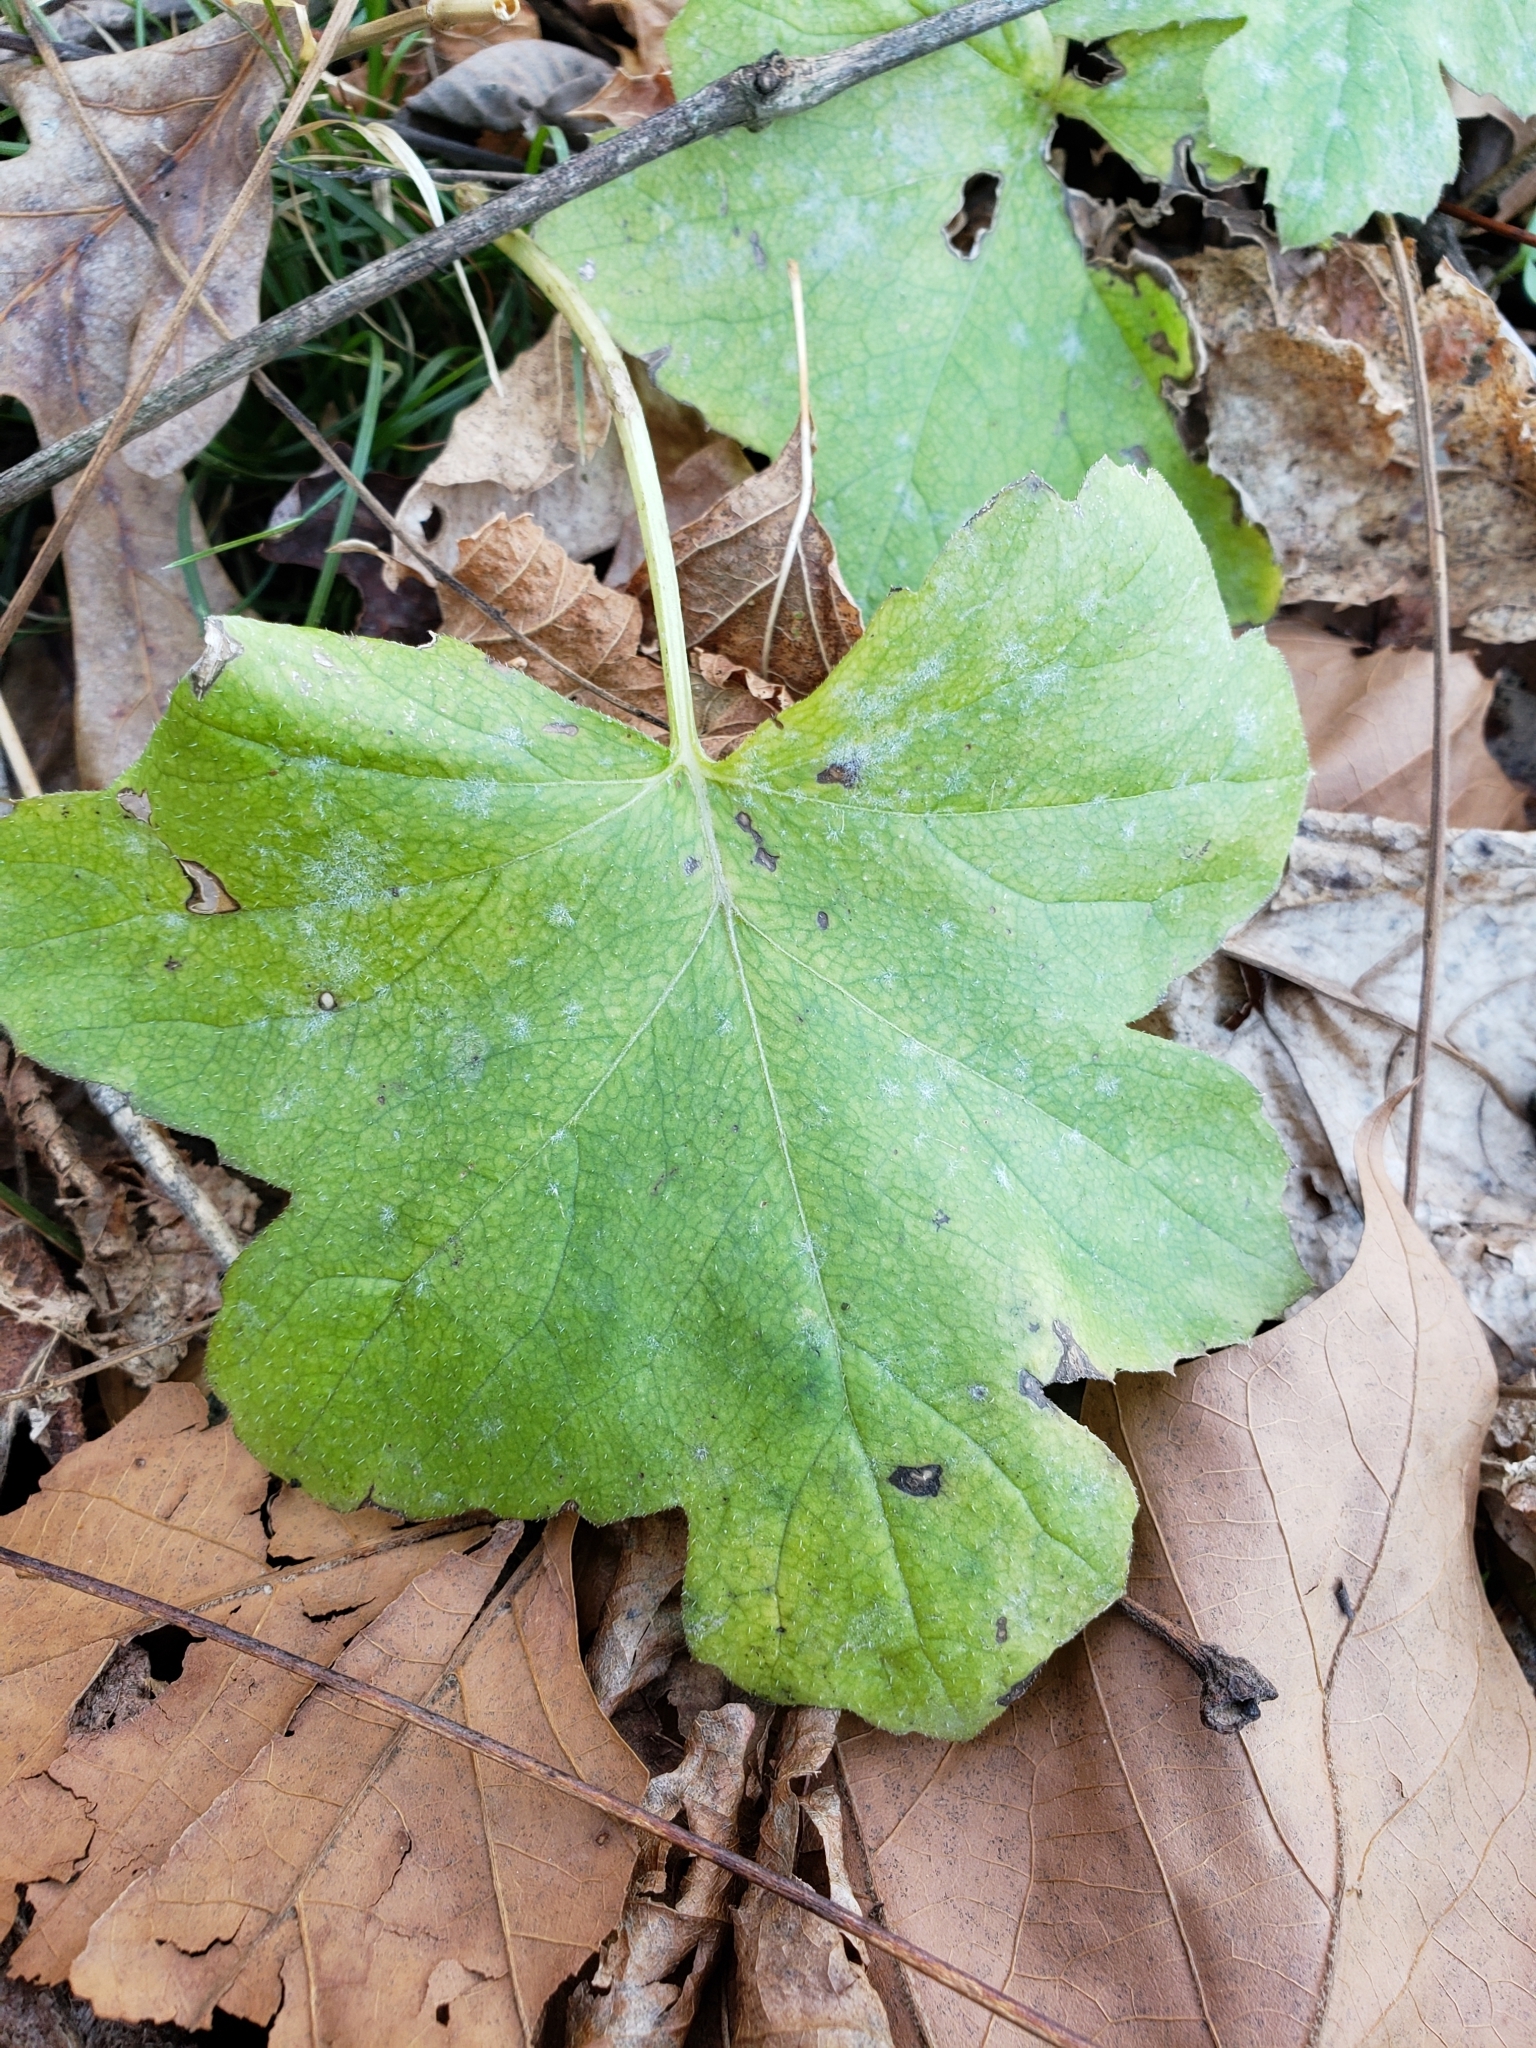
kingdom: Plantae
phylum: Tracheophyta
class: Magnoliopsida
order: Boraginales
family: Hydrophyllaceae
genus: Hydrophyllum
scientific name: Hydrophyllum canadense
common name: Canada waterleaf
